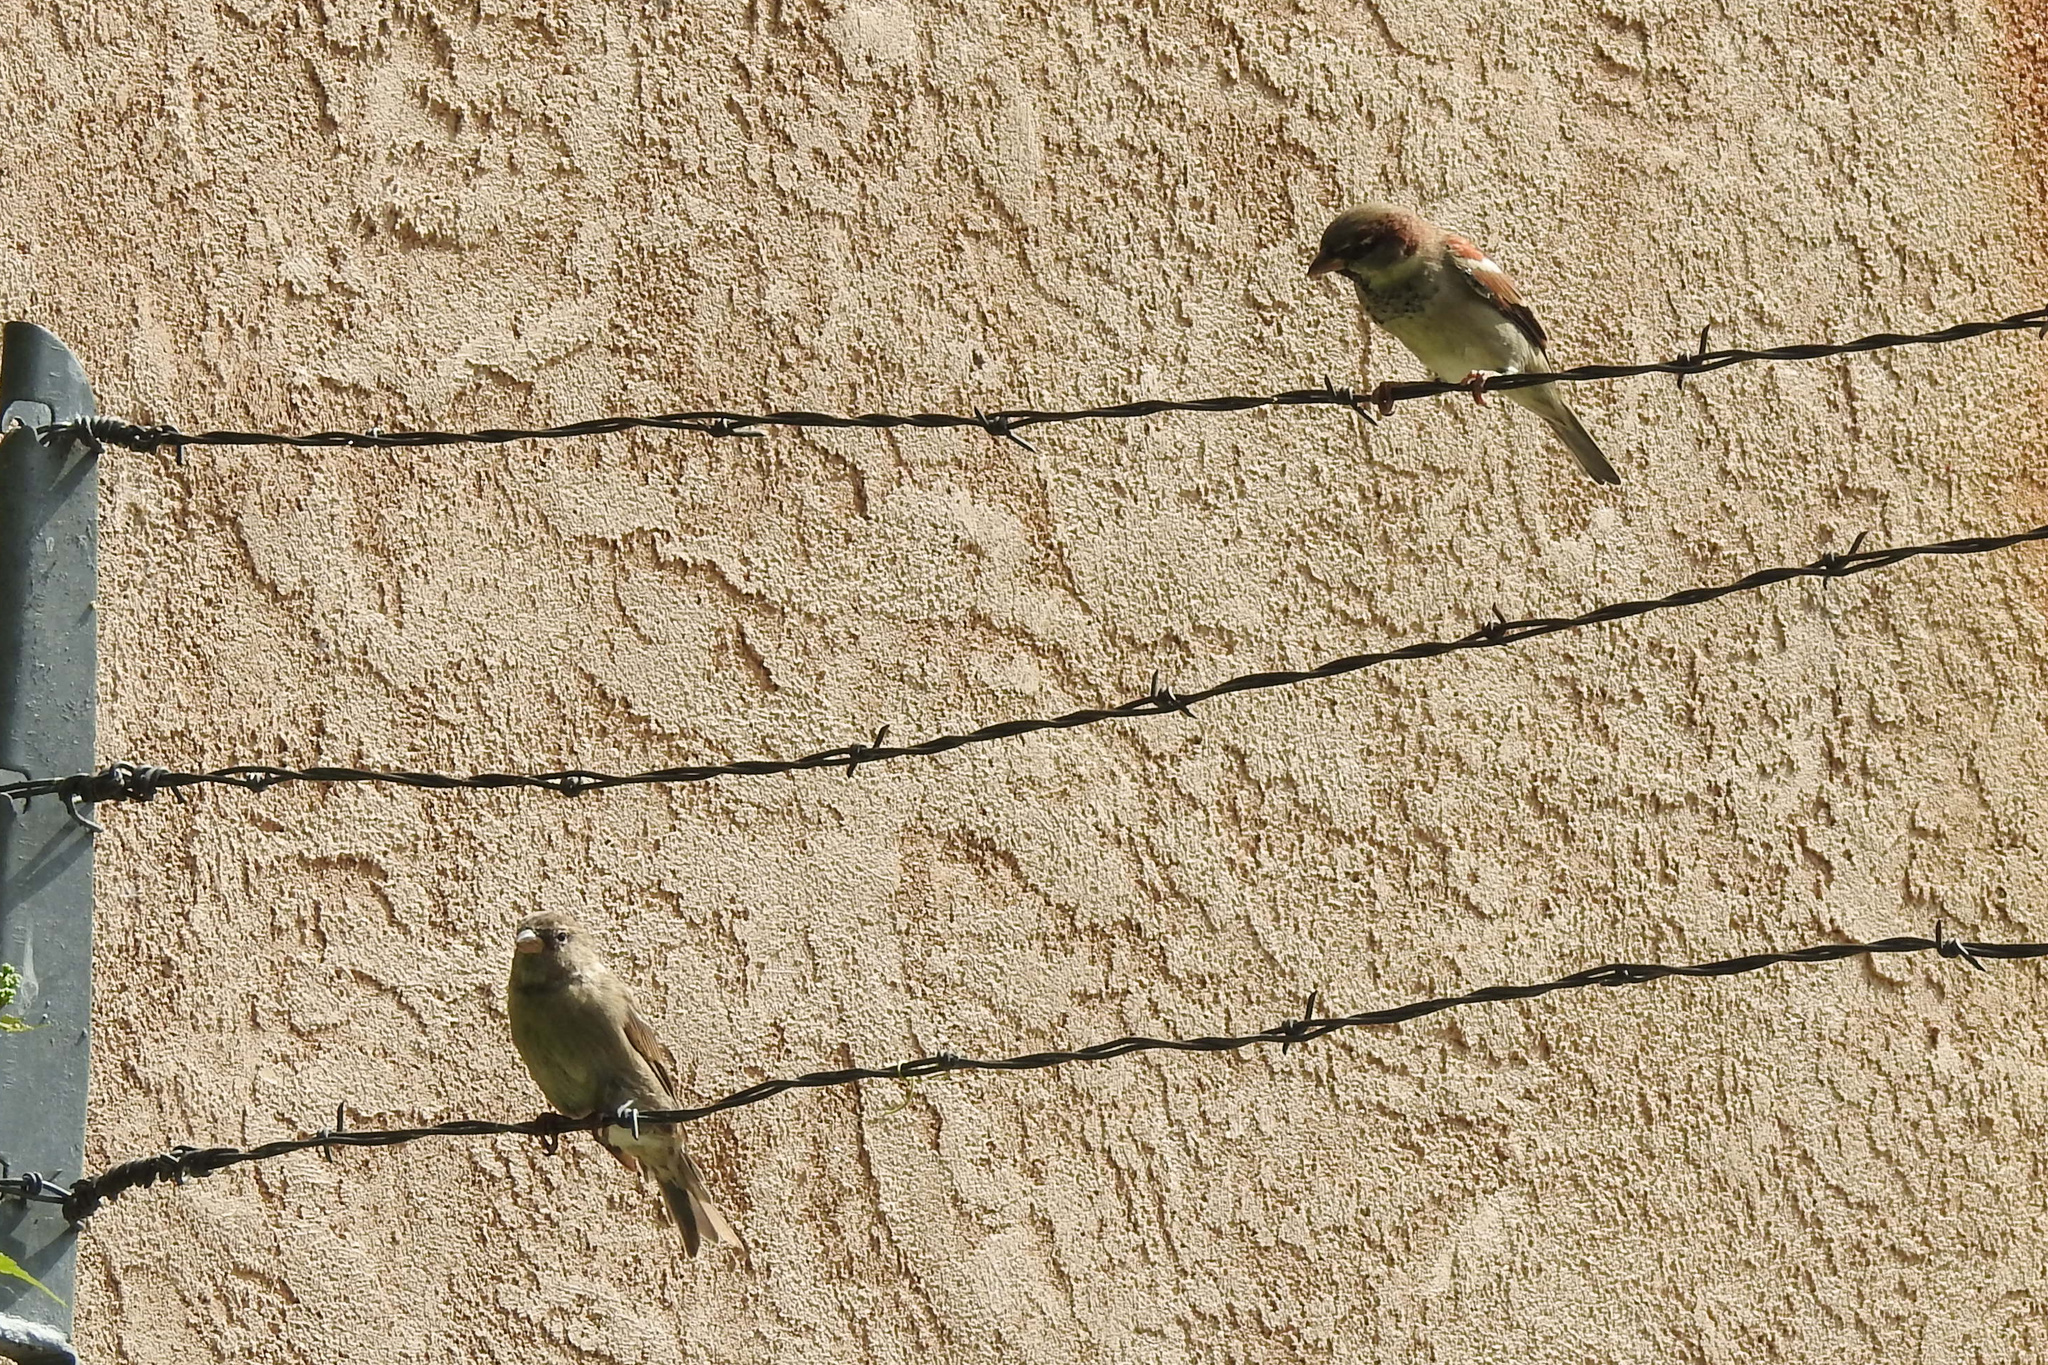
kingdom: Animalia
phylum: Chordata
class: Aves
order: Passeriformes
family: Passeridae
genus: Passer
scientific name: Passer domesticus
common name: House sparrow
